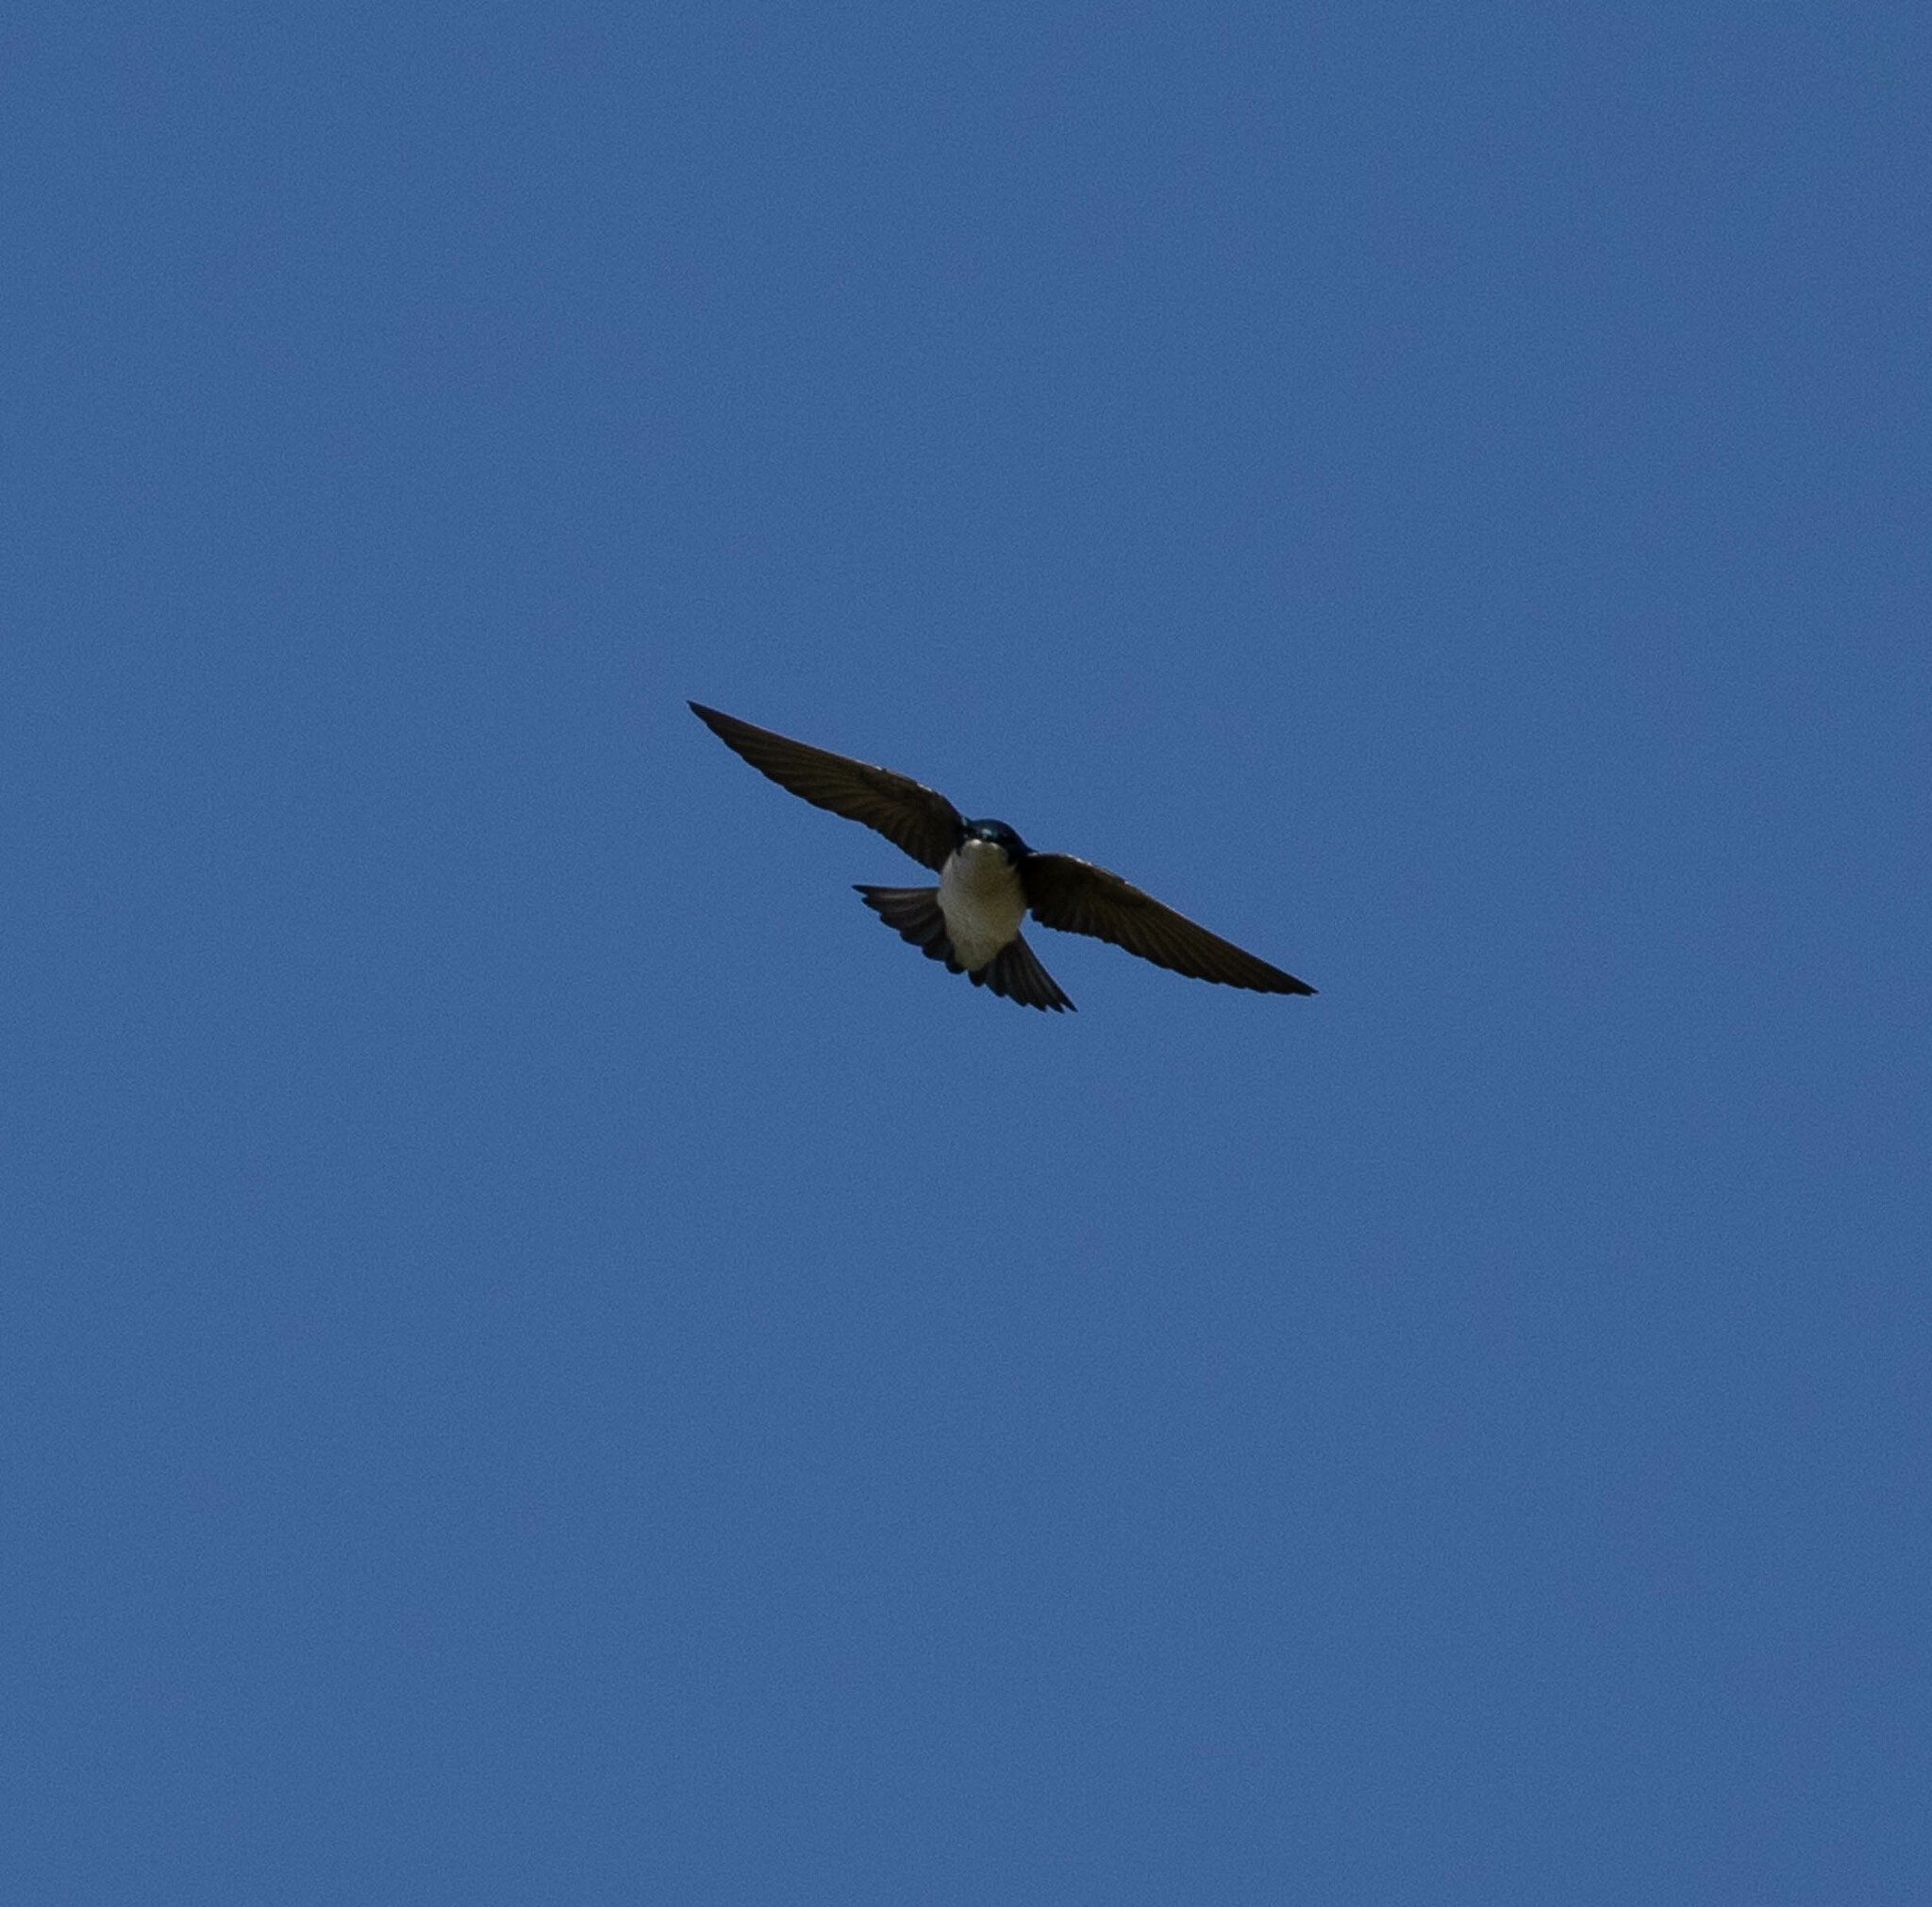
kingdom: Animalia
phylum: Chordata
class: Aves
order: Passeriformes
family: Hirundinidae
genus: Tachycineta
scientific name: Tachycineta bicolor
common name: Tree swallow
